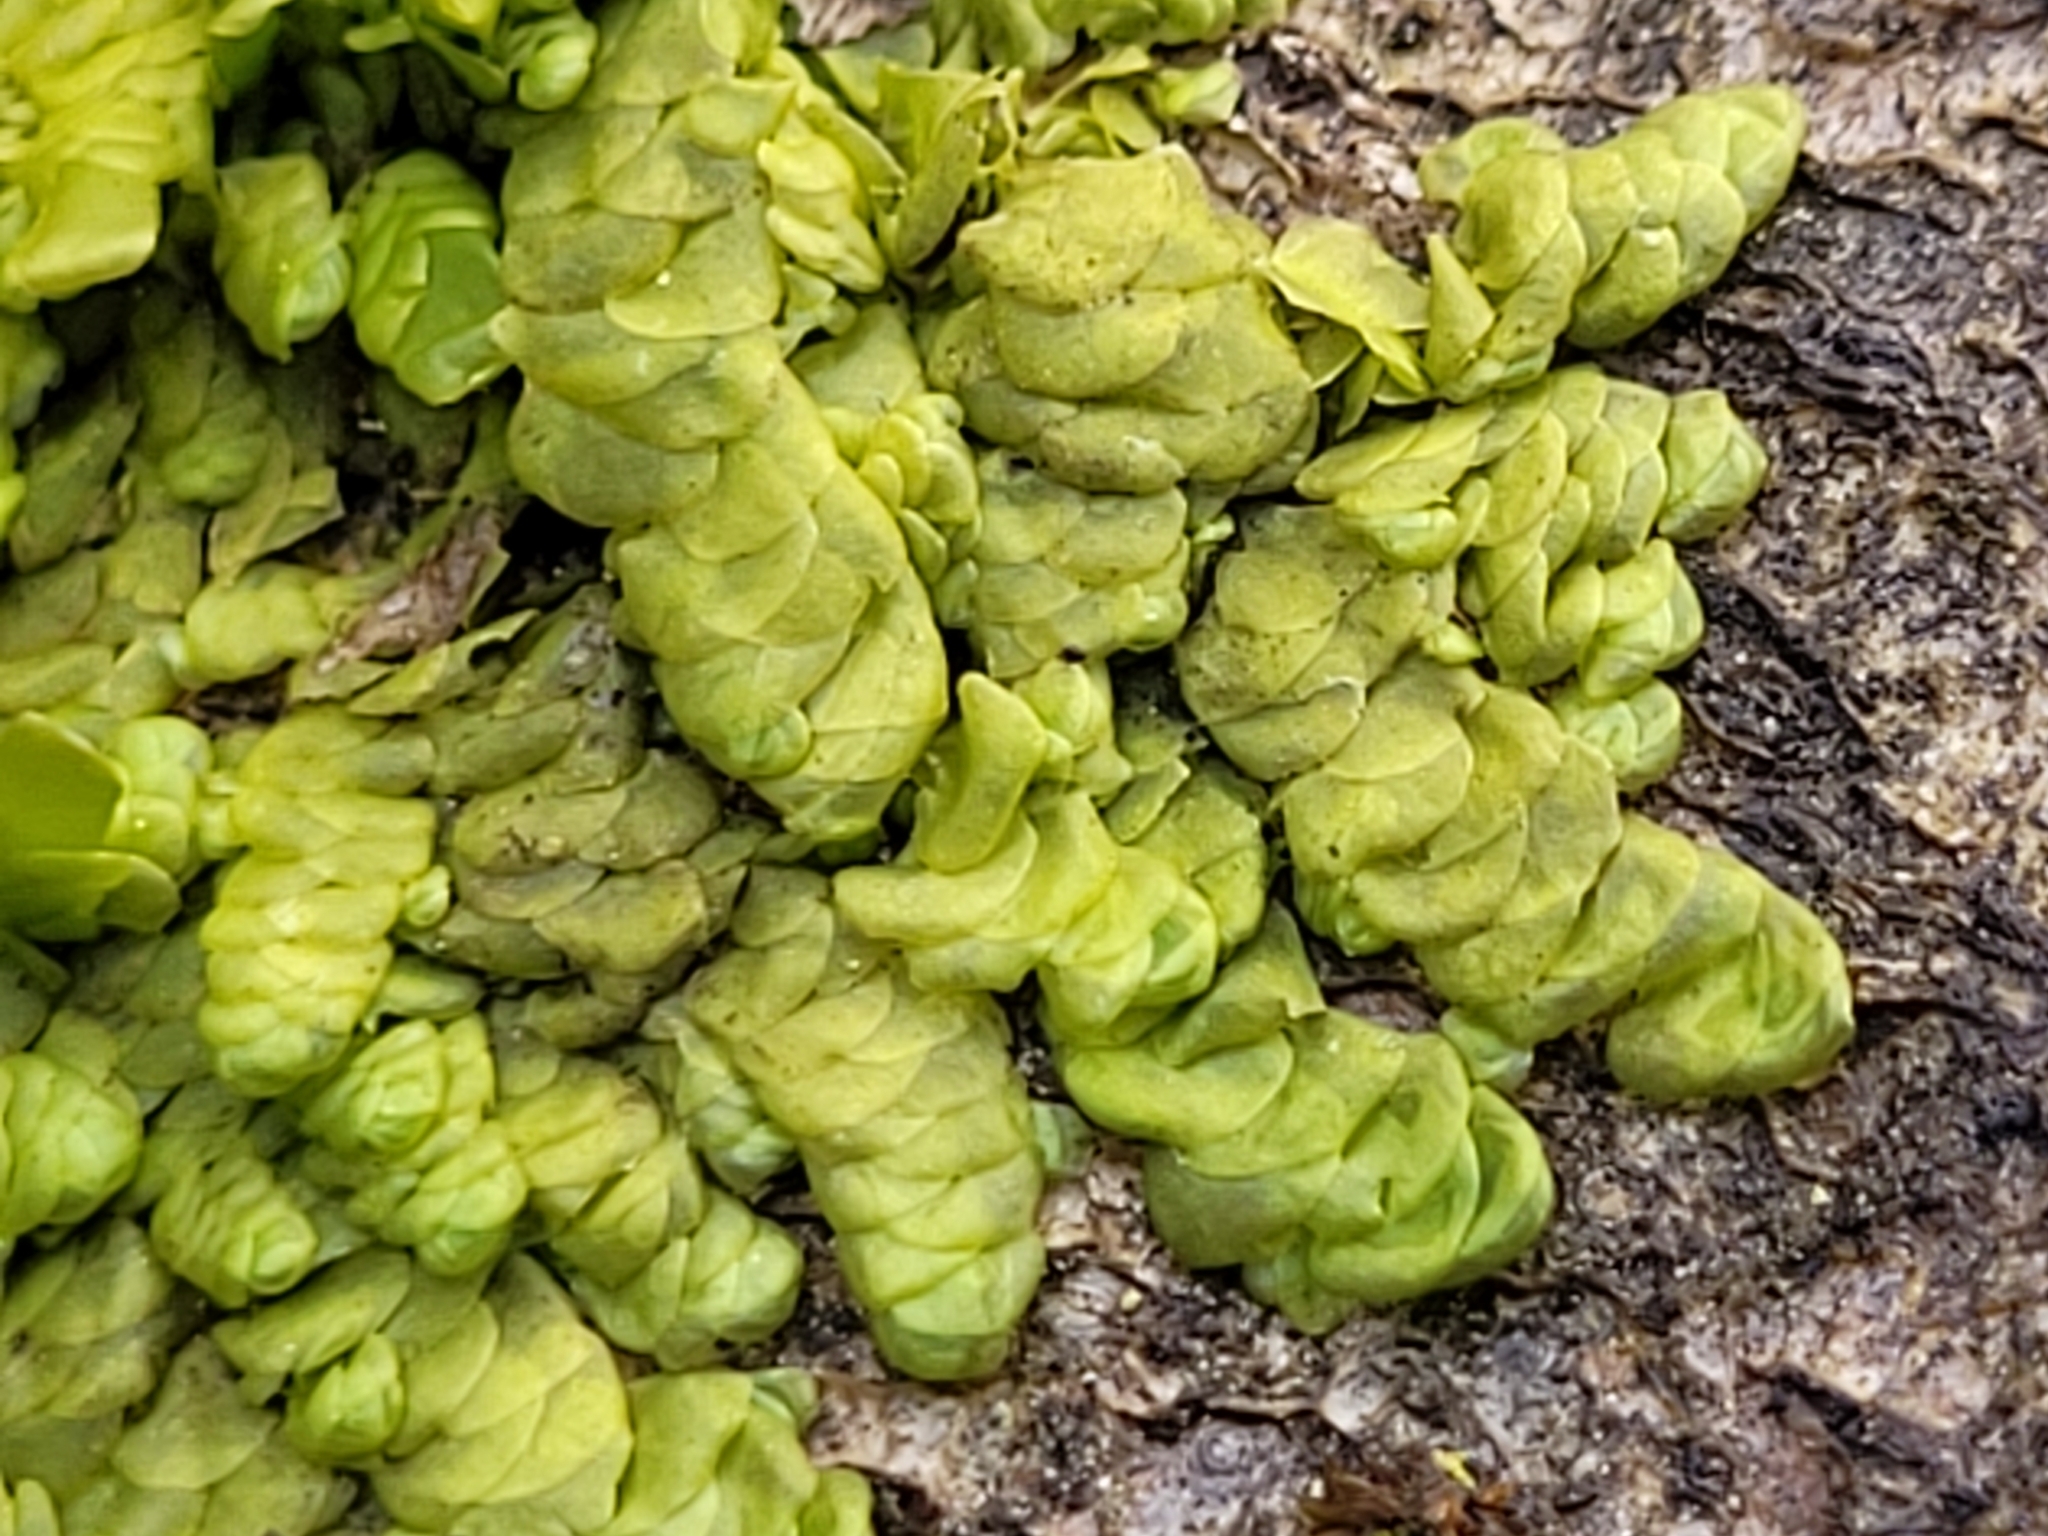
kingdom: Plantae
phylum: Marchantiophyta
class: Jungermanniopsida
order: Porellales
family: Radulaceae
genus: Radula
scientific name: Radula complanata
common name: Flat-leaved scalewort
